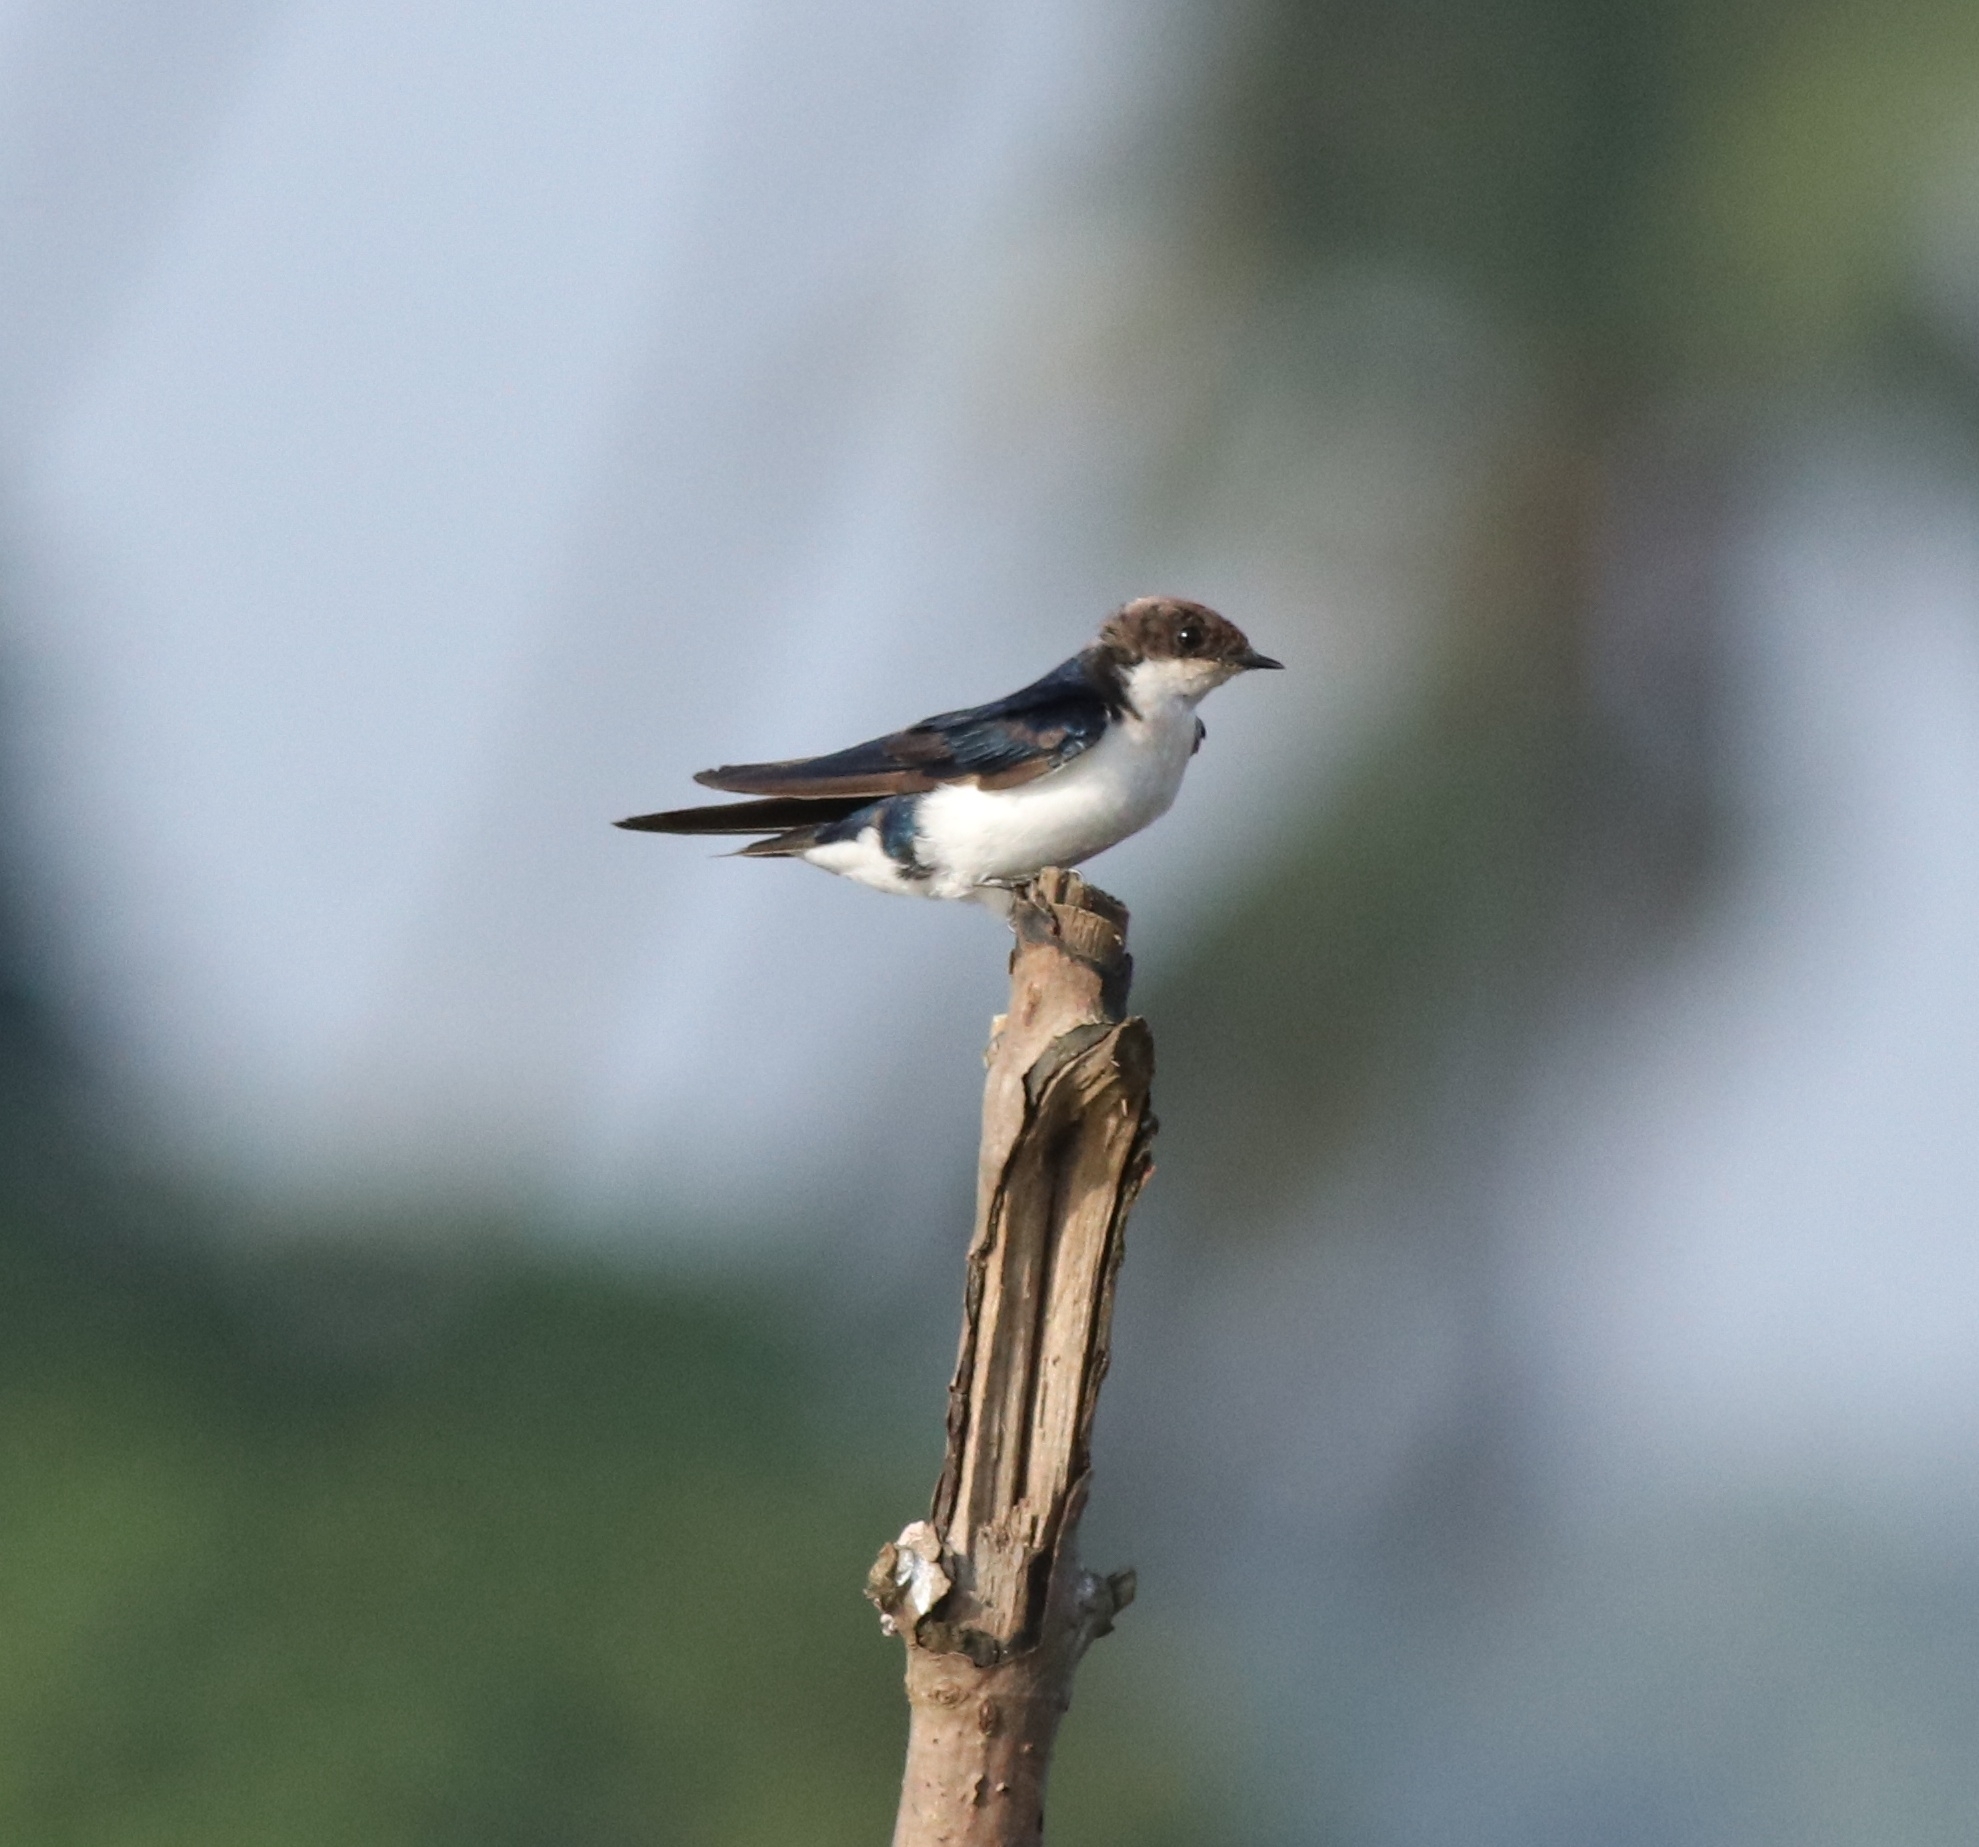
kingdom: Animalia
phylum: Chordata
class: Aves
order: Passeriformes
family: Hirundinidae
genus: Hirundo
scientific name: Hirundo smithii
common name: Wire-tailed swallow
